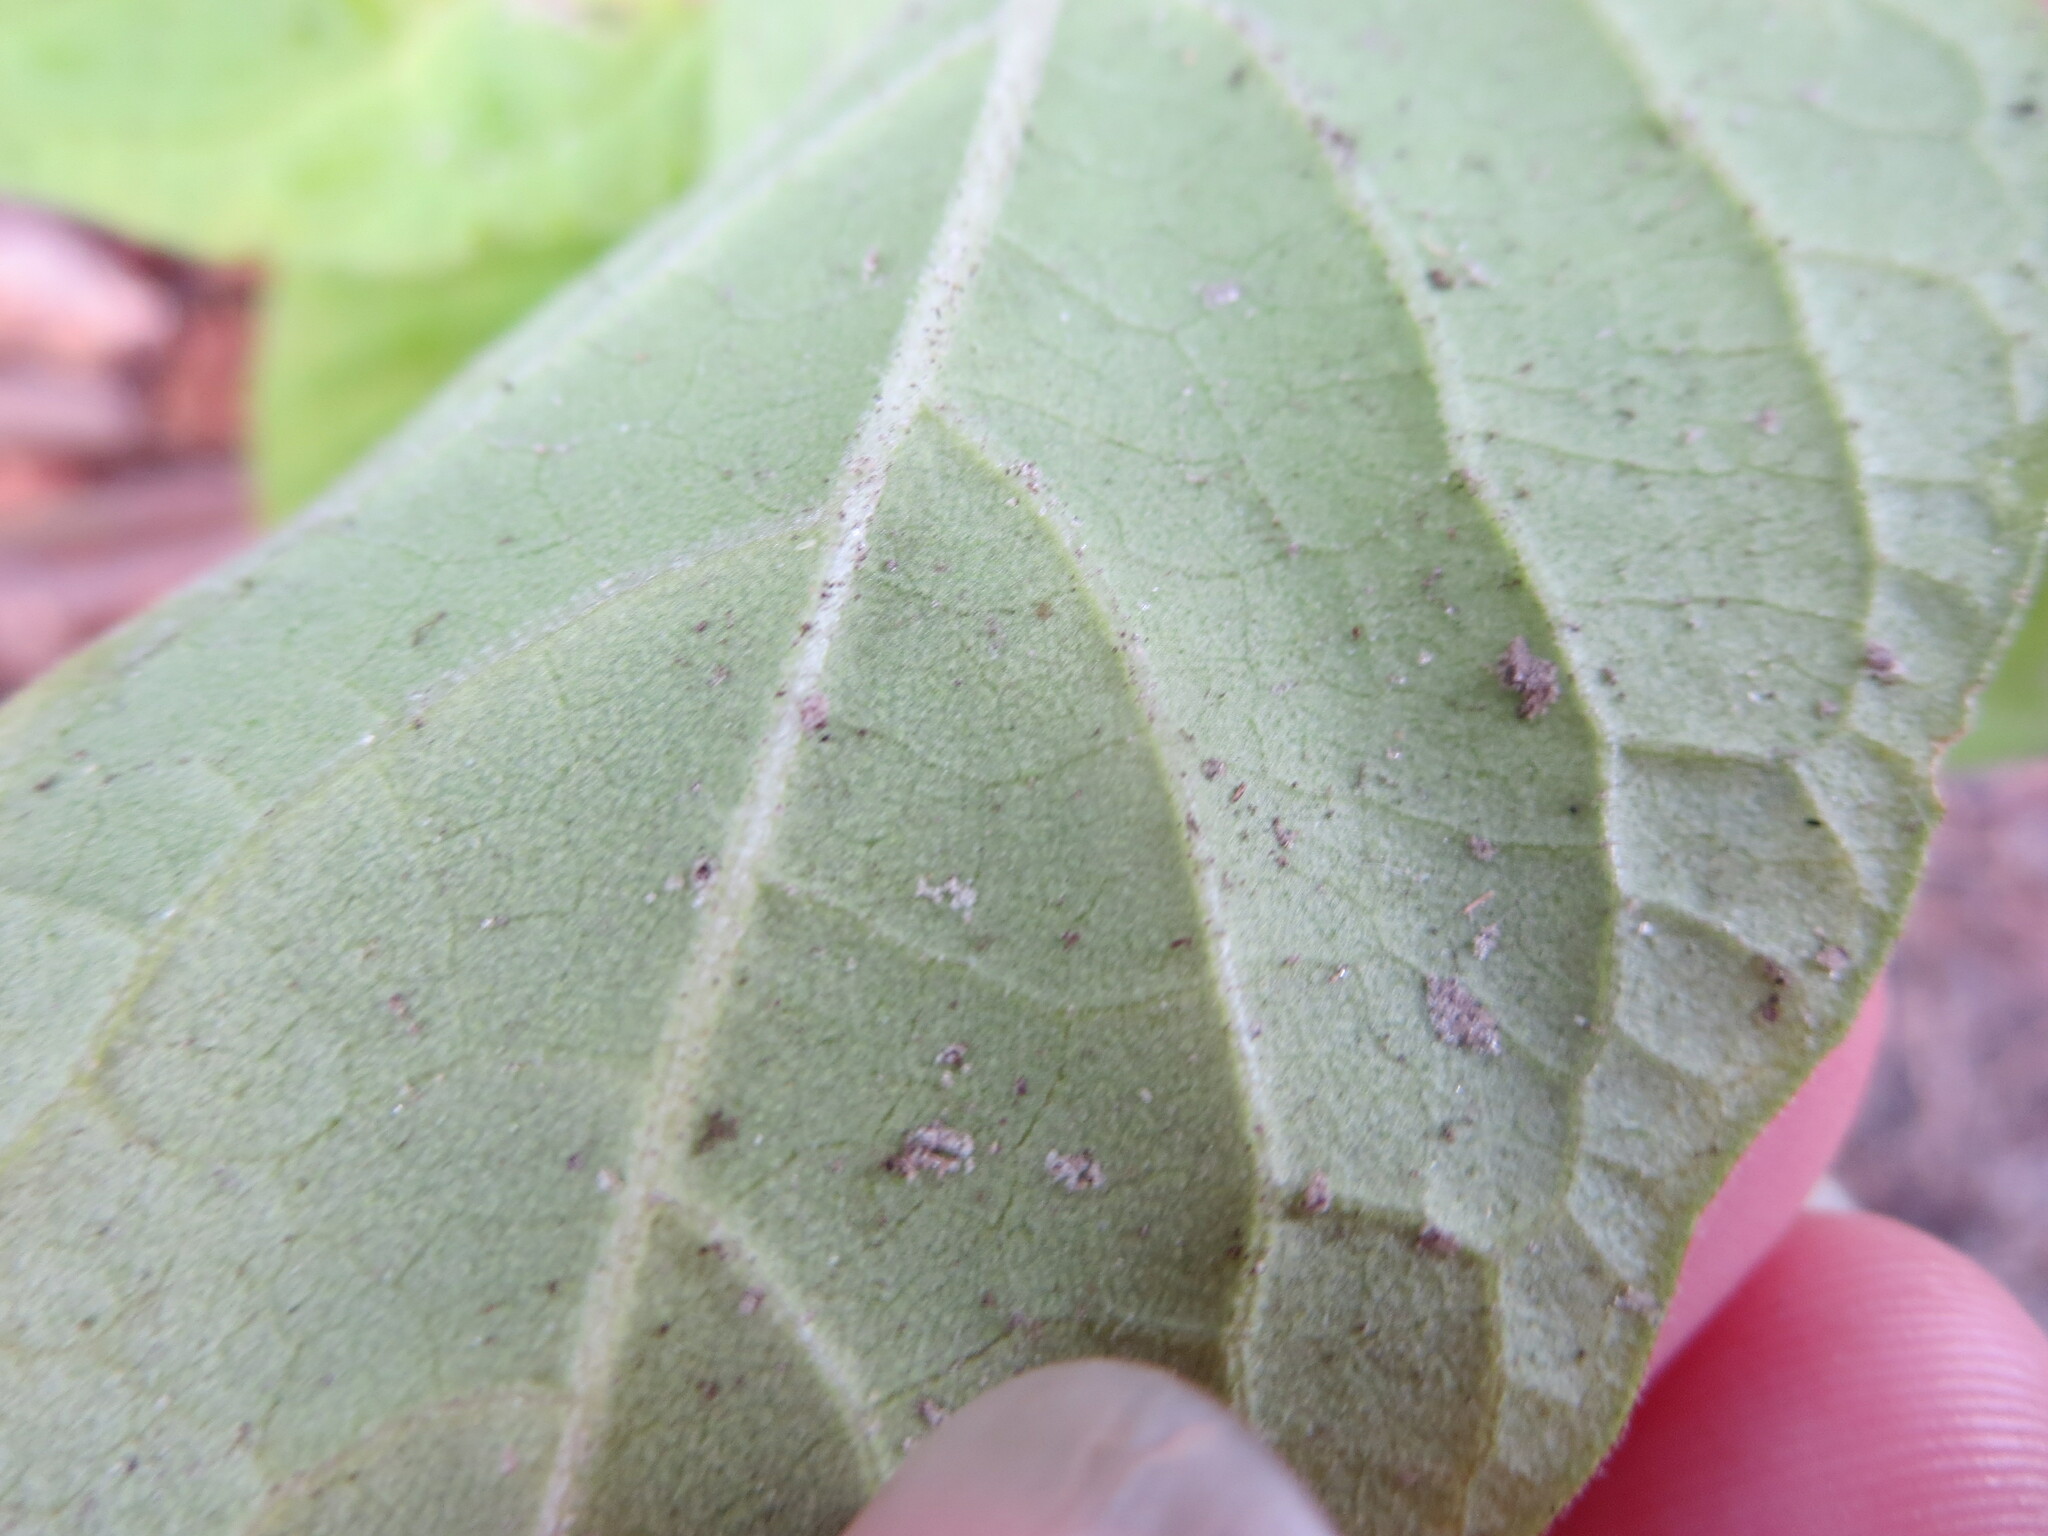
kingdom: Plantae
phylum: Tracheophyta
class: Magnoliopsida
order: Solanales
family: Solanaceae
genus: Physalis
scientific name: Physalis walteri
